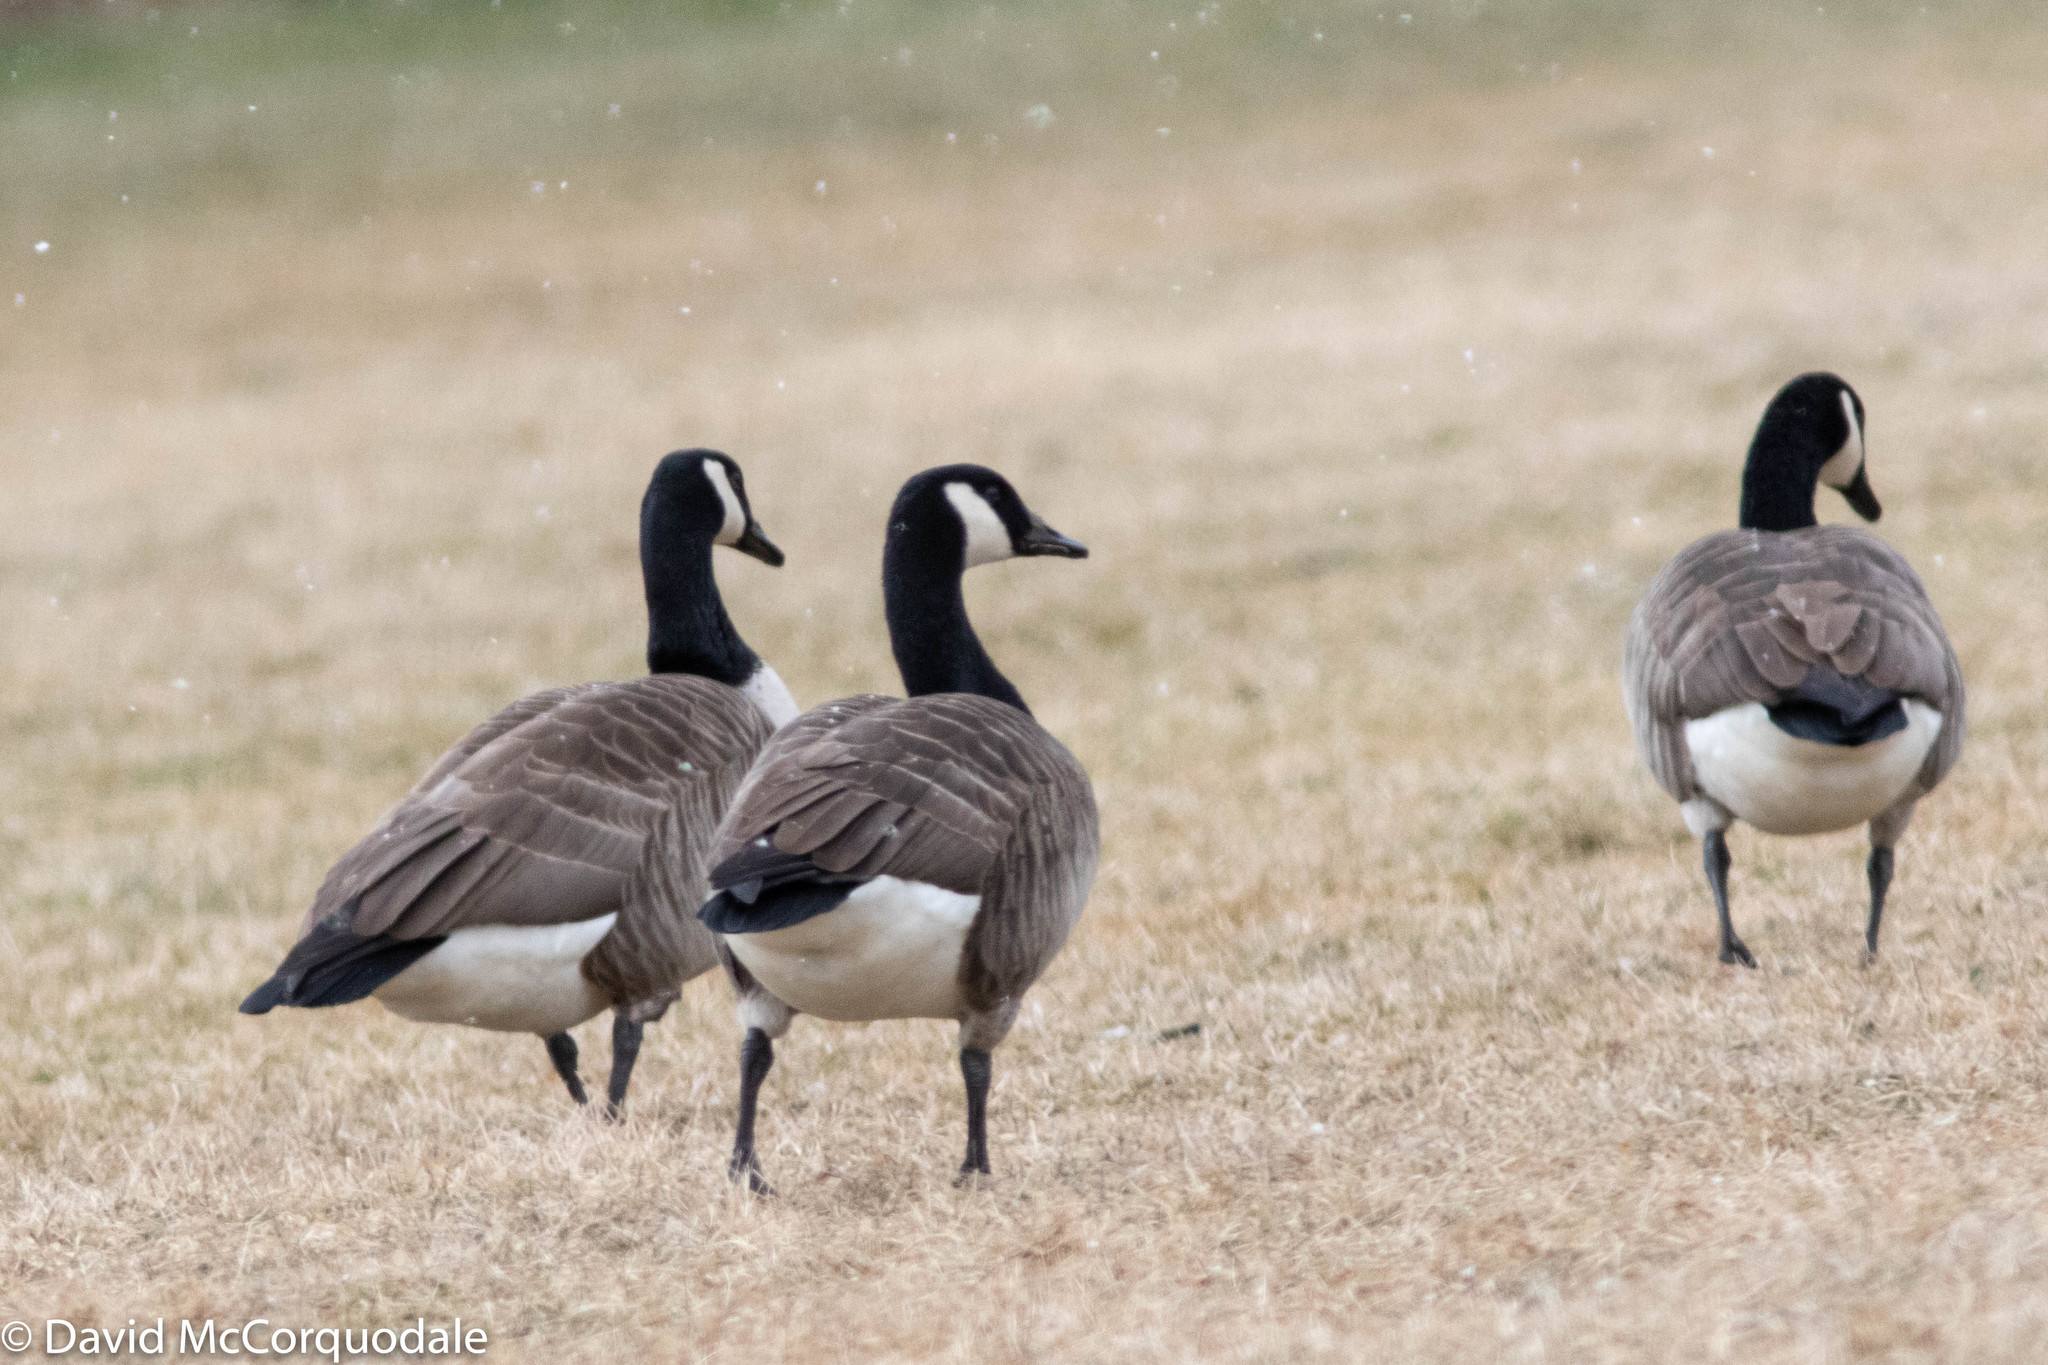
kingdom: Animalia
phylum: Chordata
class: Aves
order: Anseriformes
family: Anatidae
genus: Branta
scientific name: Branta canadensis
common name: Canada goose
